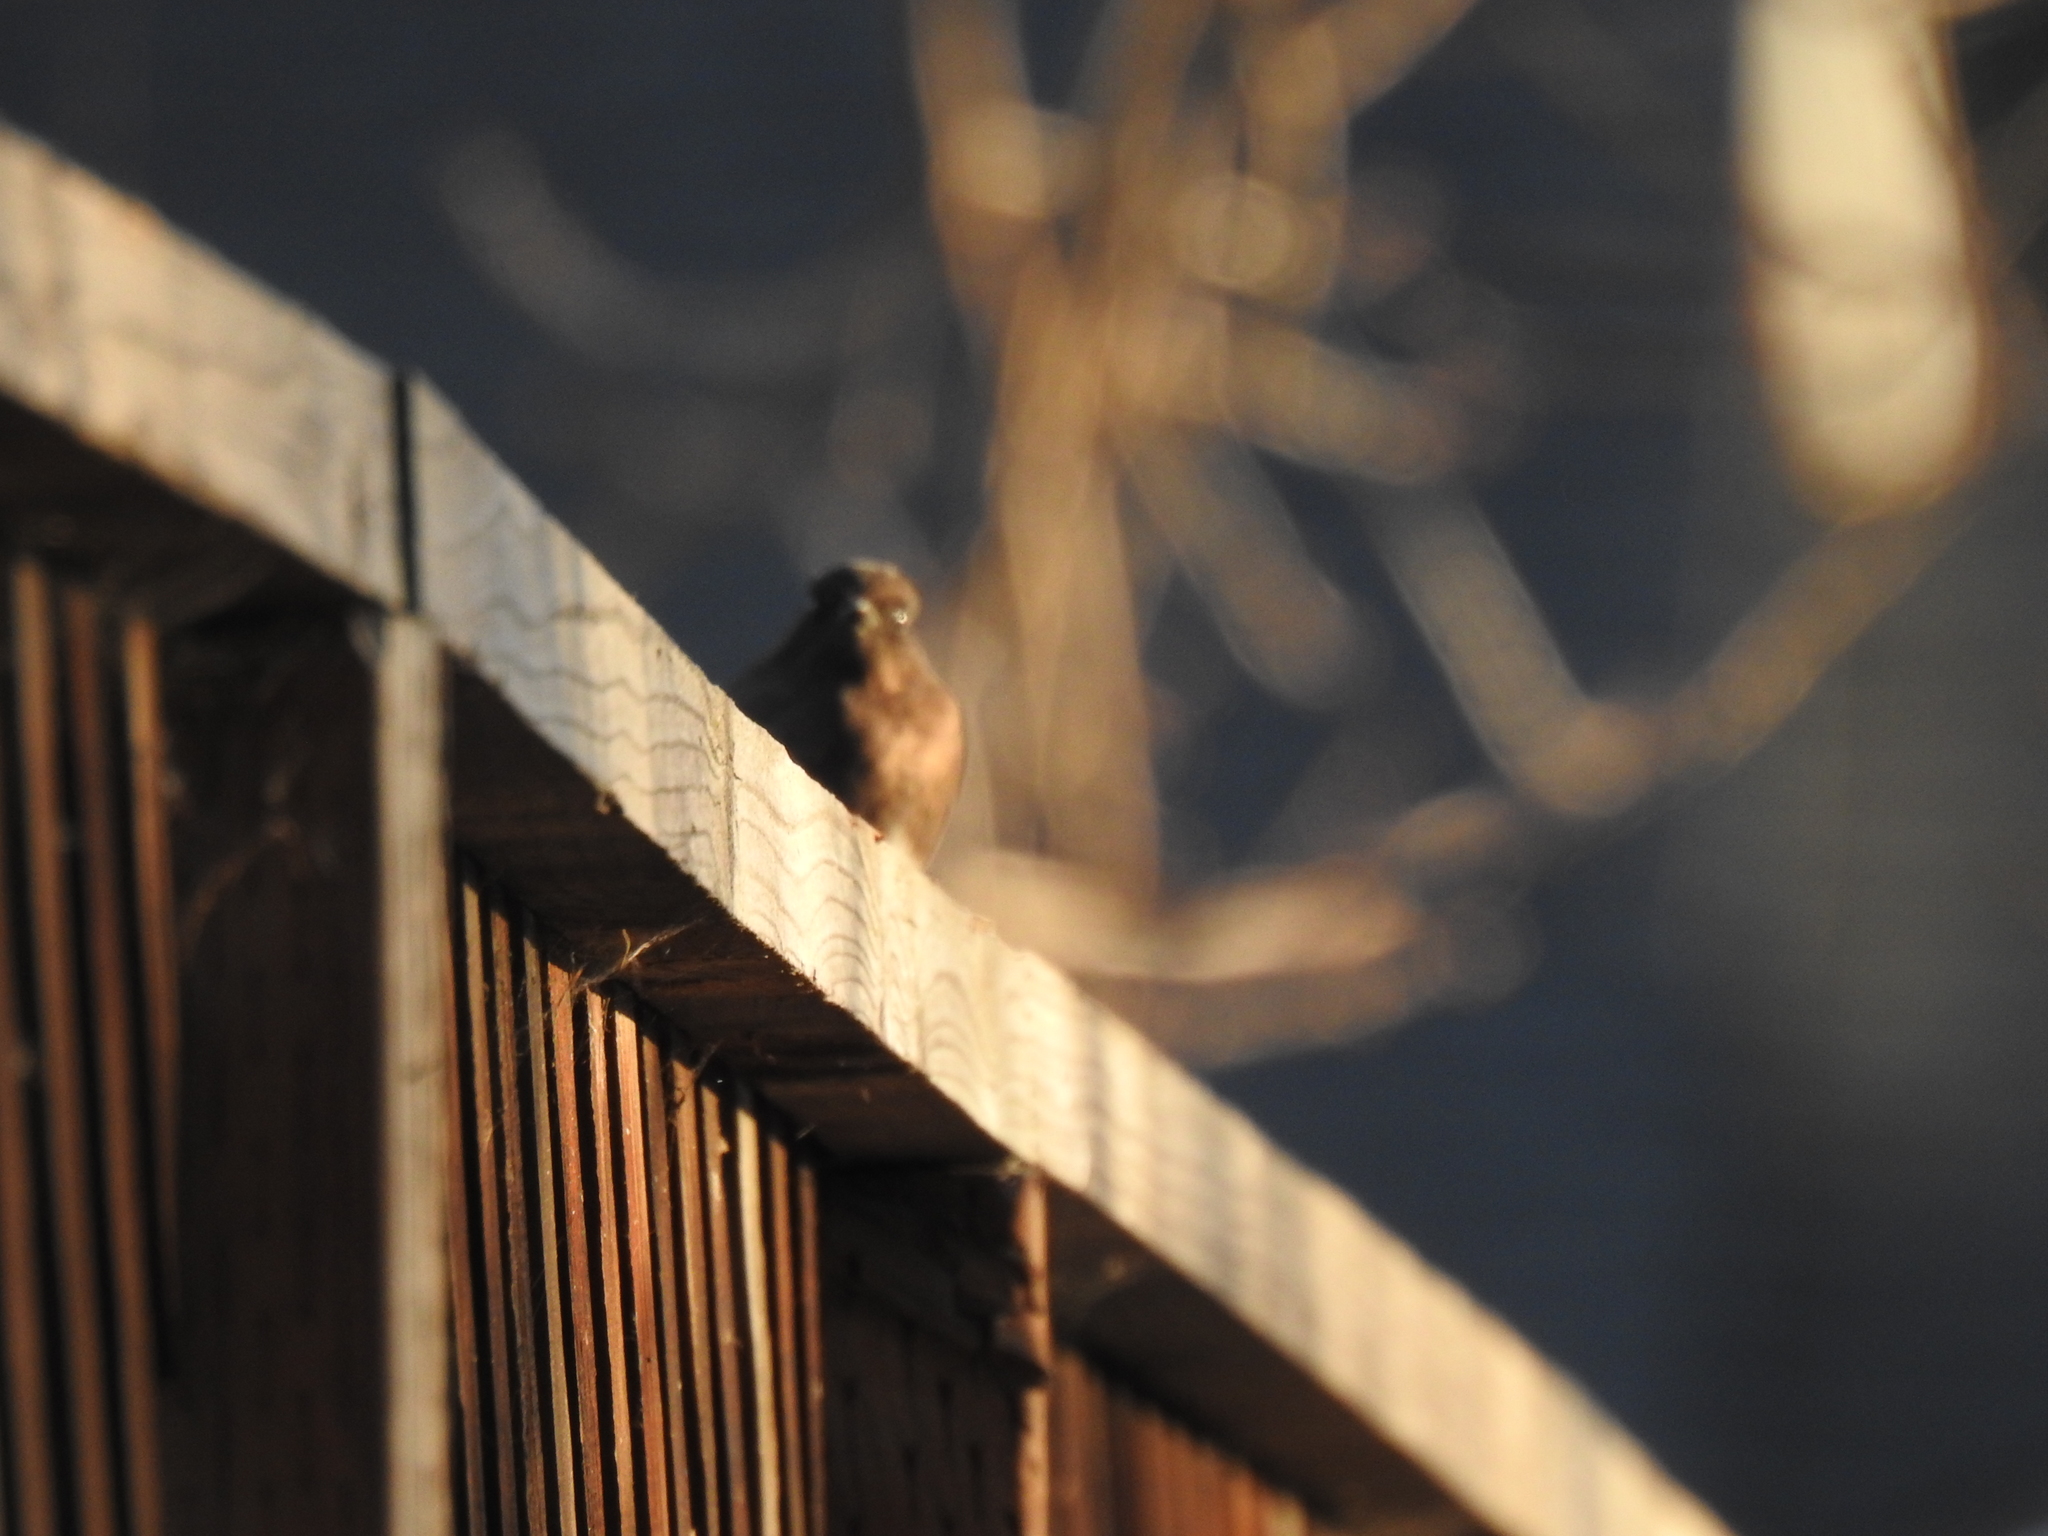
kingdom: Animalia
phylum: Chordata
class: Aves
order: Passeriformes
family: Tyrannidae
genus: Sayornis
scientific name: Sayornis nigricans
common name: Black phoebe
